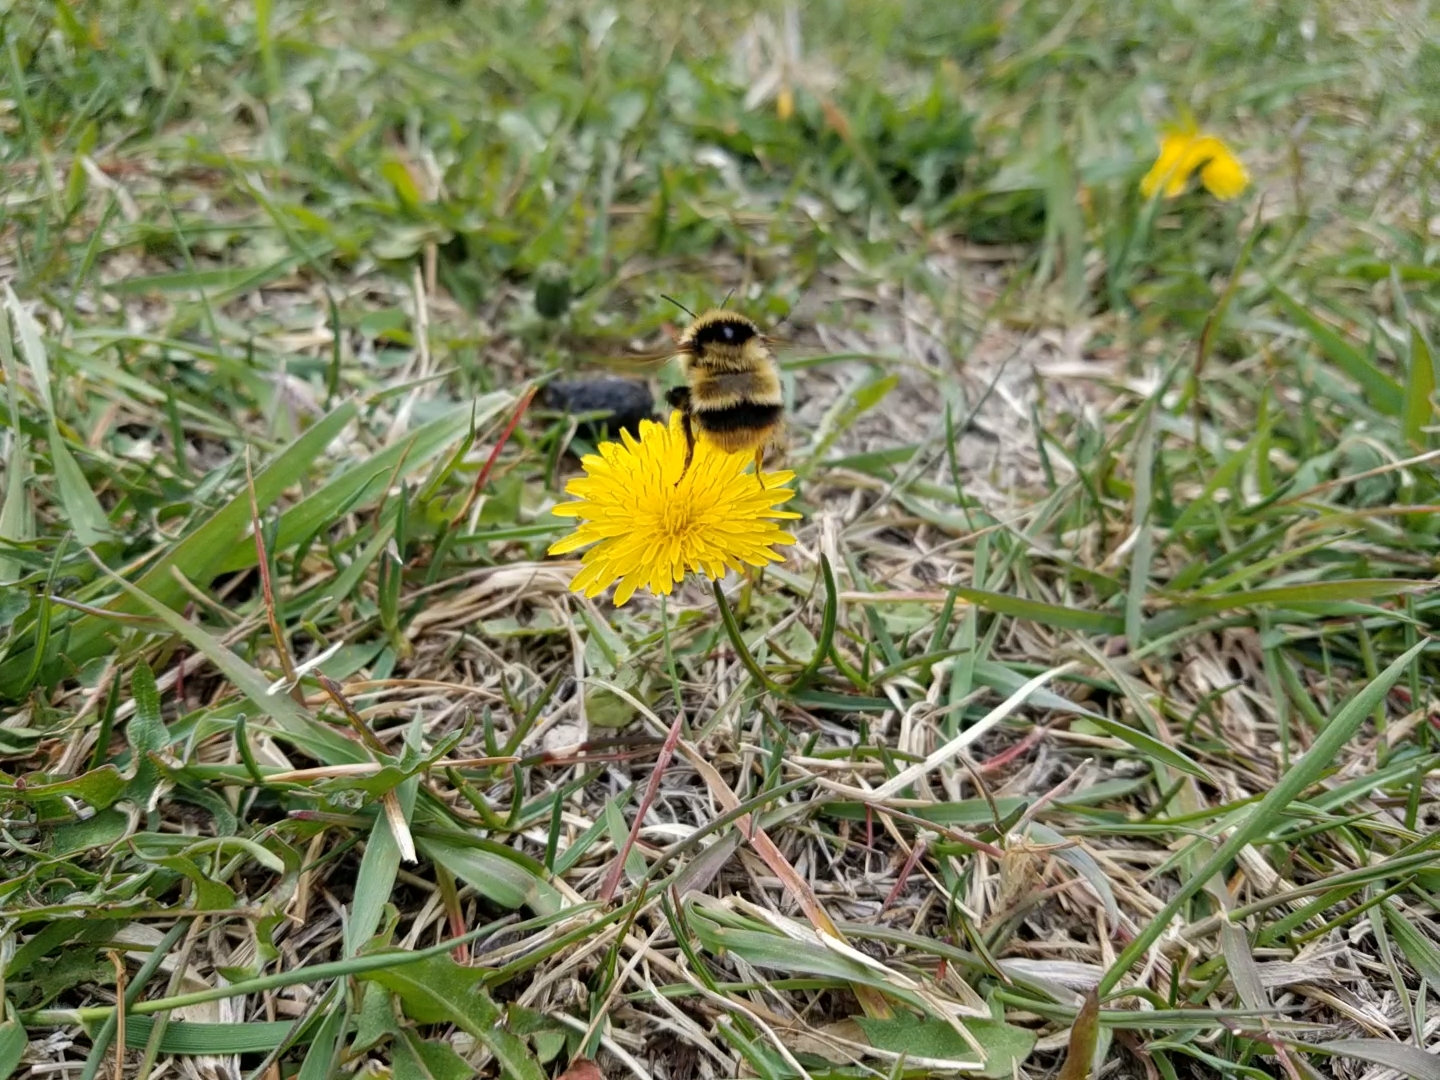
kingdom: Animalia
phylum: Arthropoda
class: Insecta
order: Hymenoptera
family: Apidae
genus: Bombus
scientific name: Bombus frigidus
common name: Frigid bumble bee
